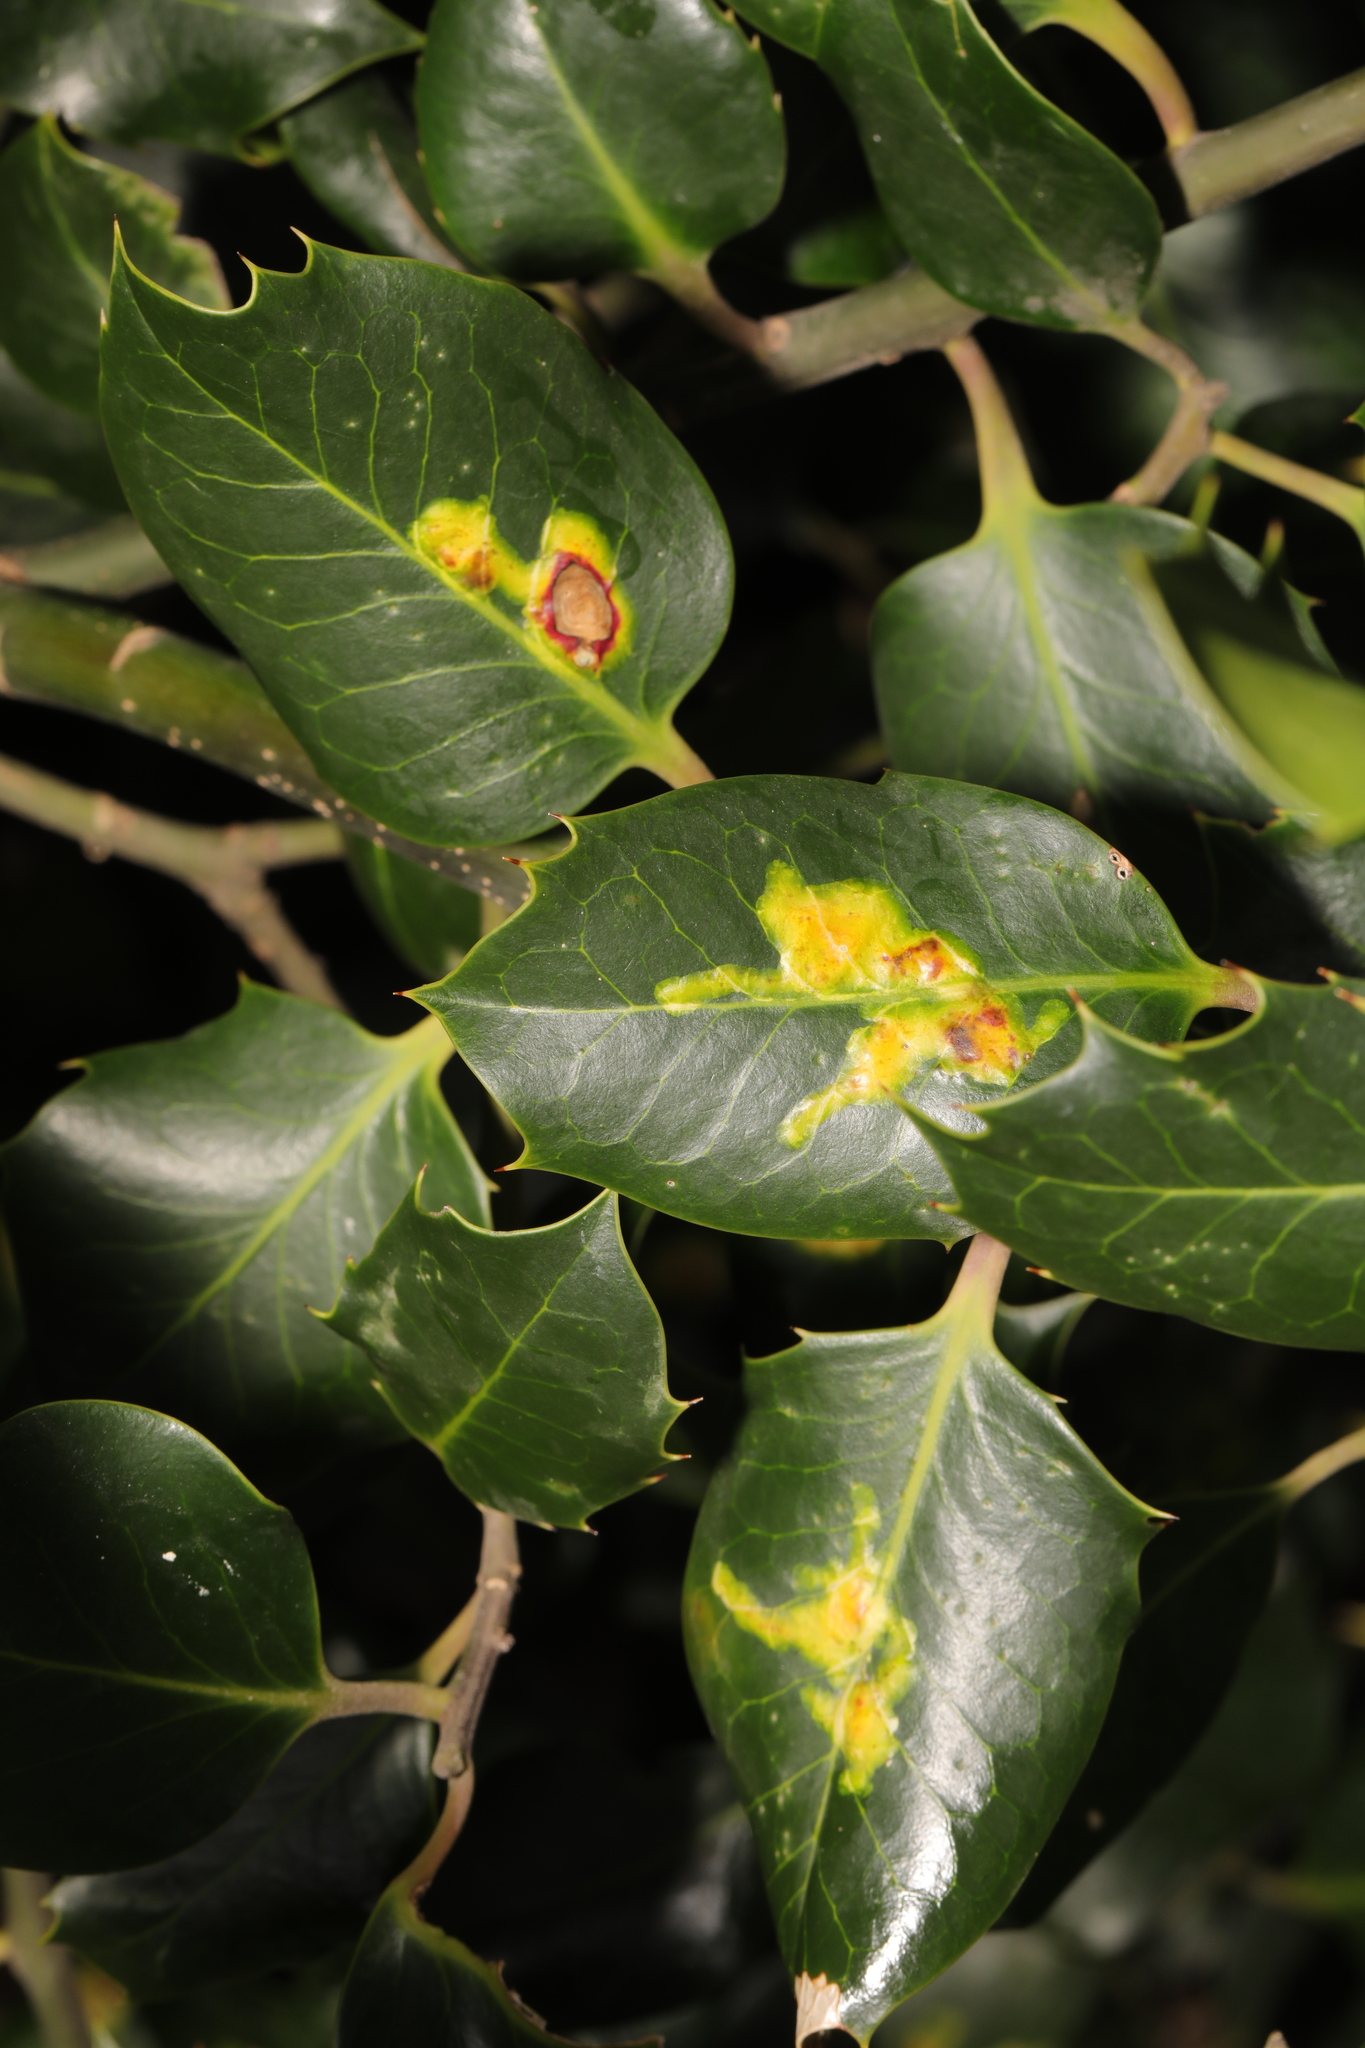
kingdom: Plantae
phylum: Tracheophyta
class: Magnoliopsida
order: Aquifoliales
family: Aquifoliaceae
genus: Ilex
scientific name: Ilex aquifolium
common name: English holly
